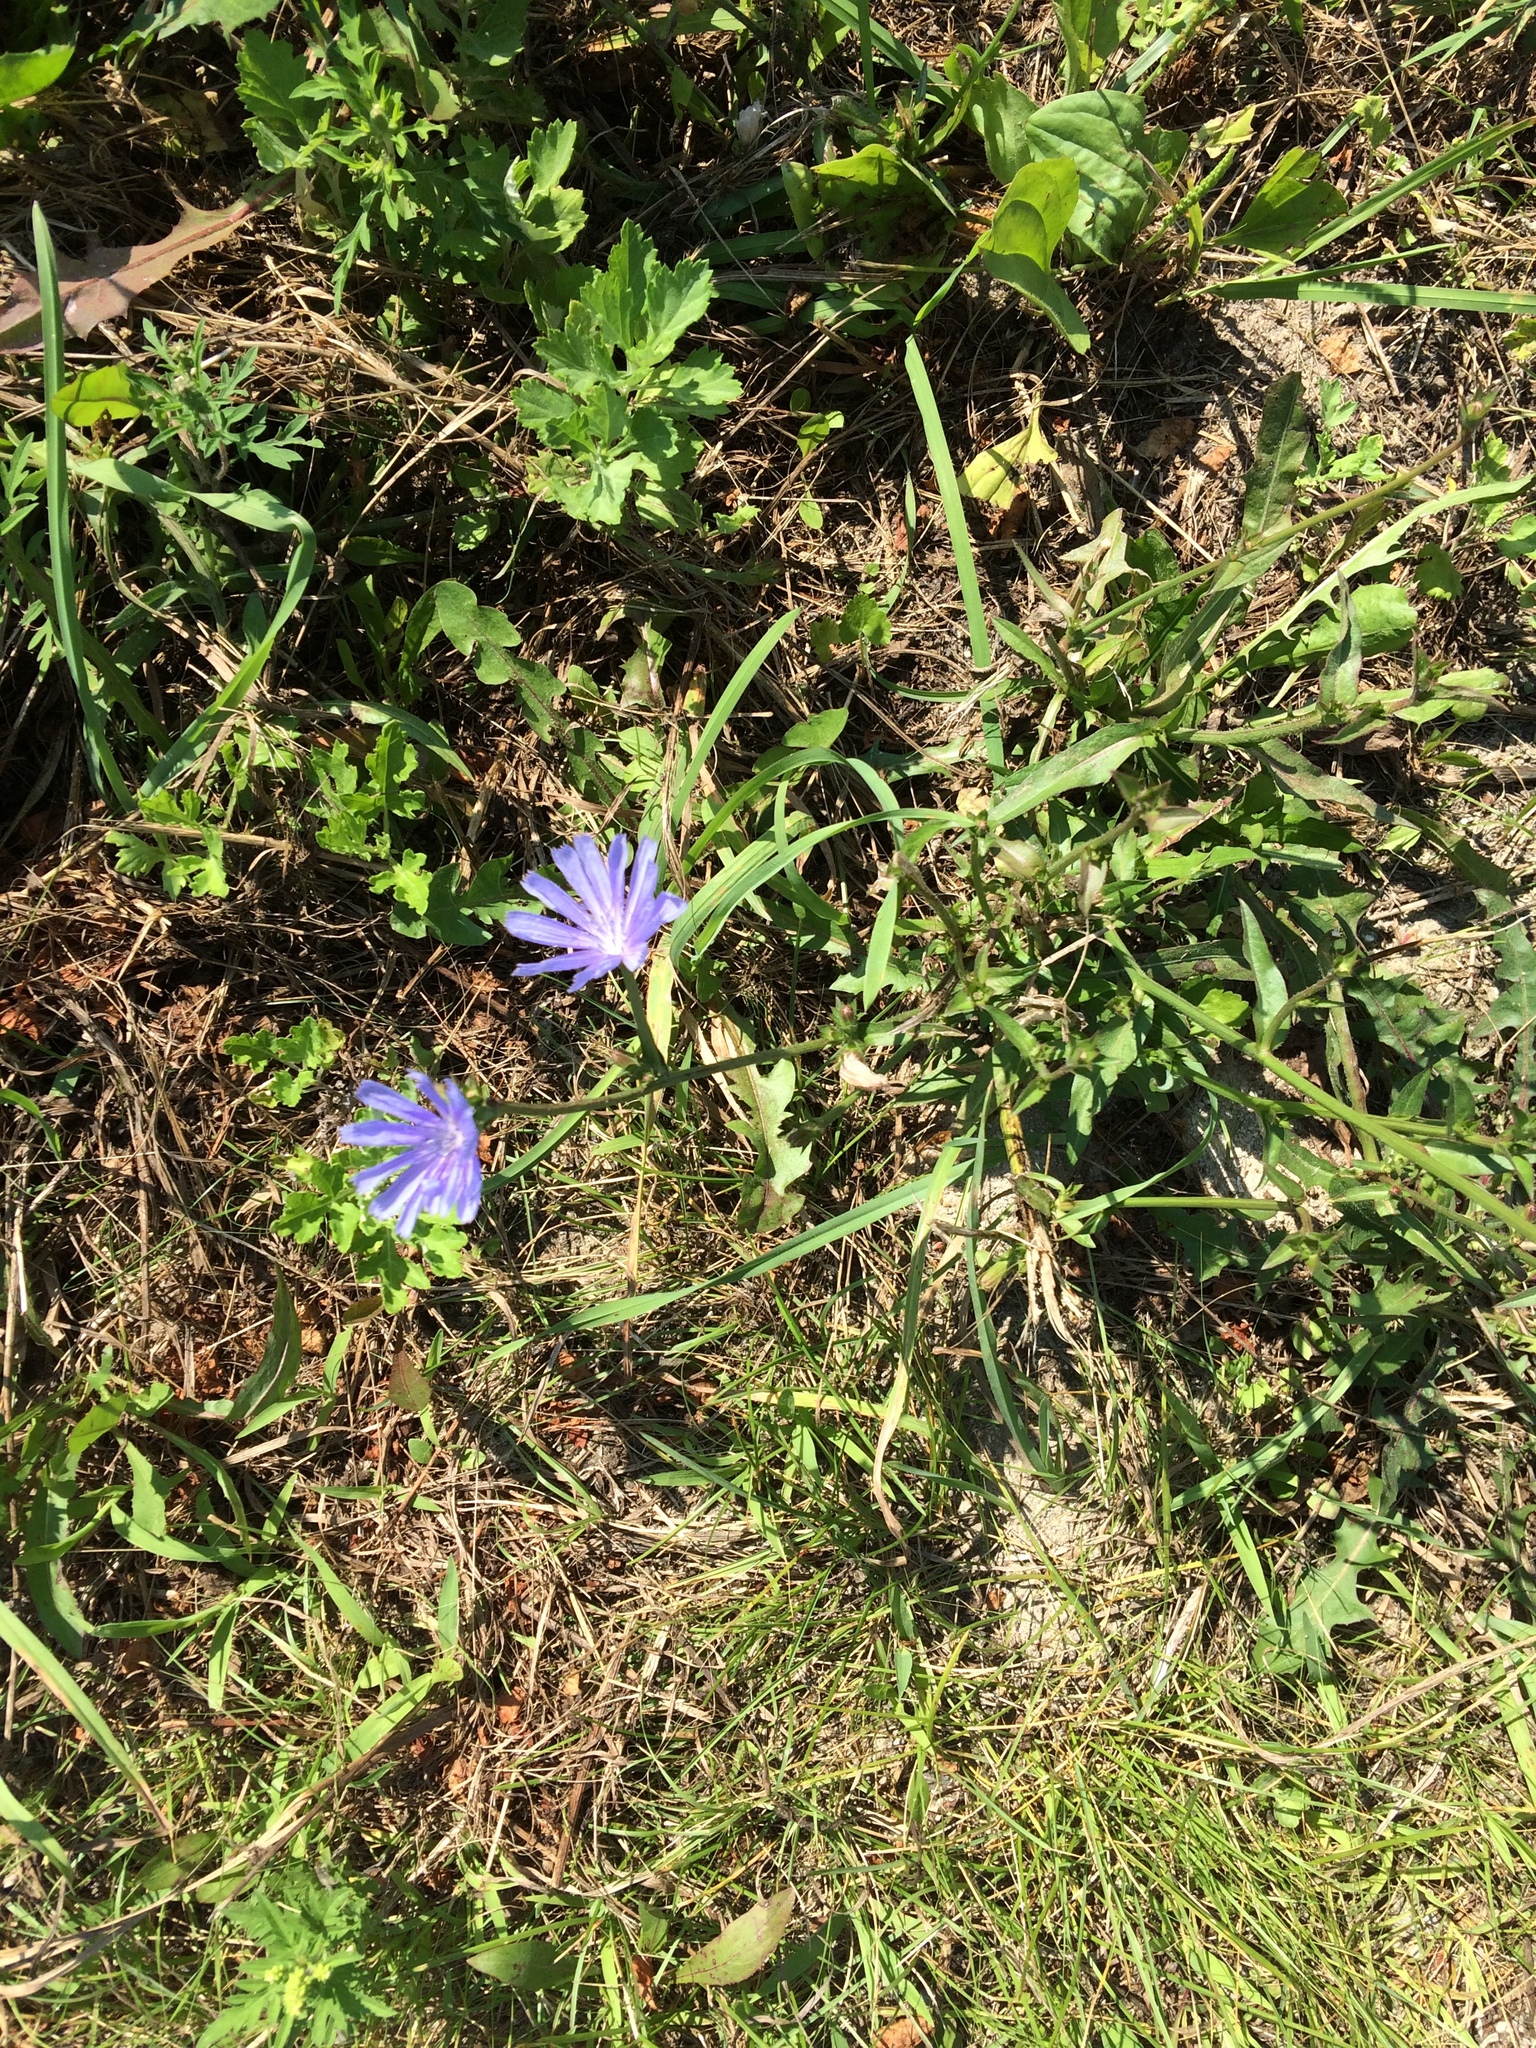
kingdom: Plantae
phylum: Tracheophyta
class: Magnoliopsida
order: Asterales
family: Asteraceae
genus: Cichorium
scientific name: Cichorium intybus
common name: Chicory
